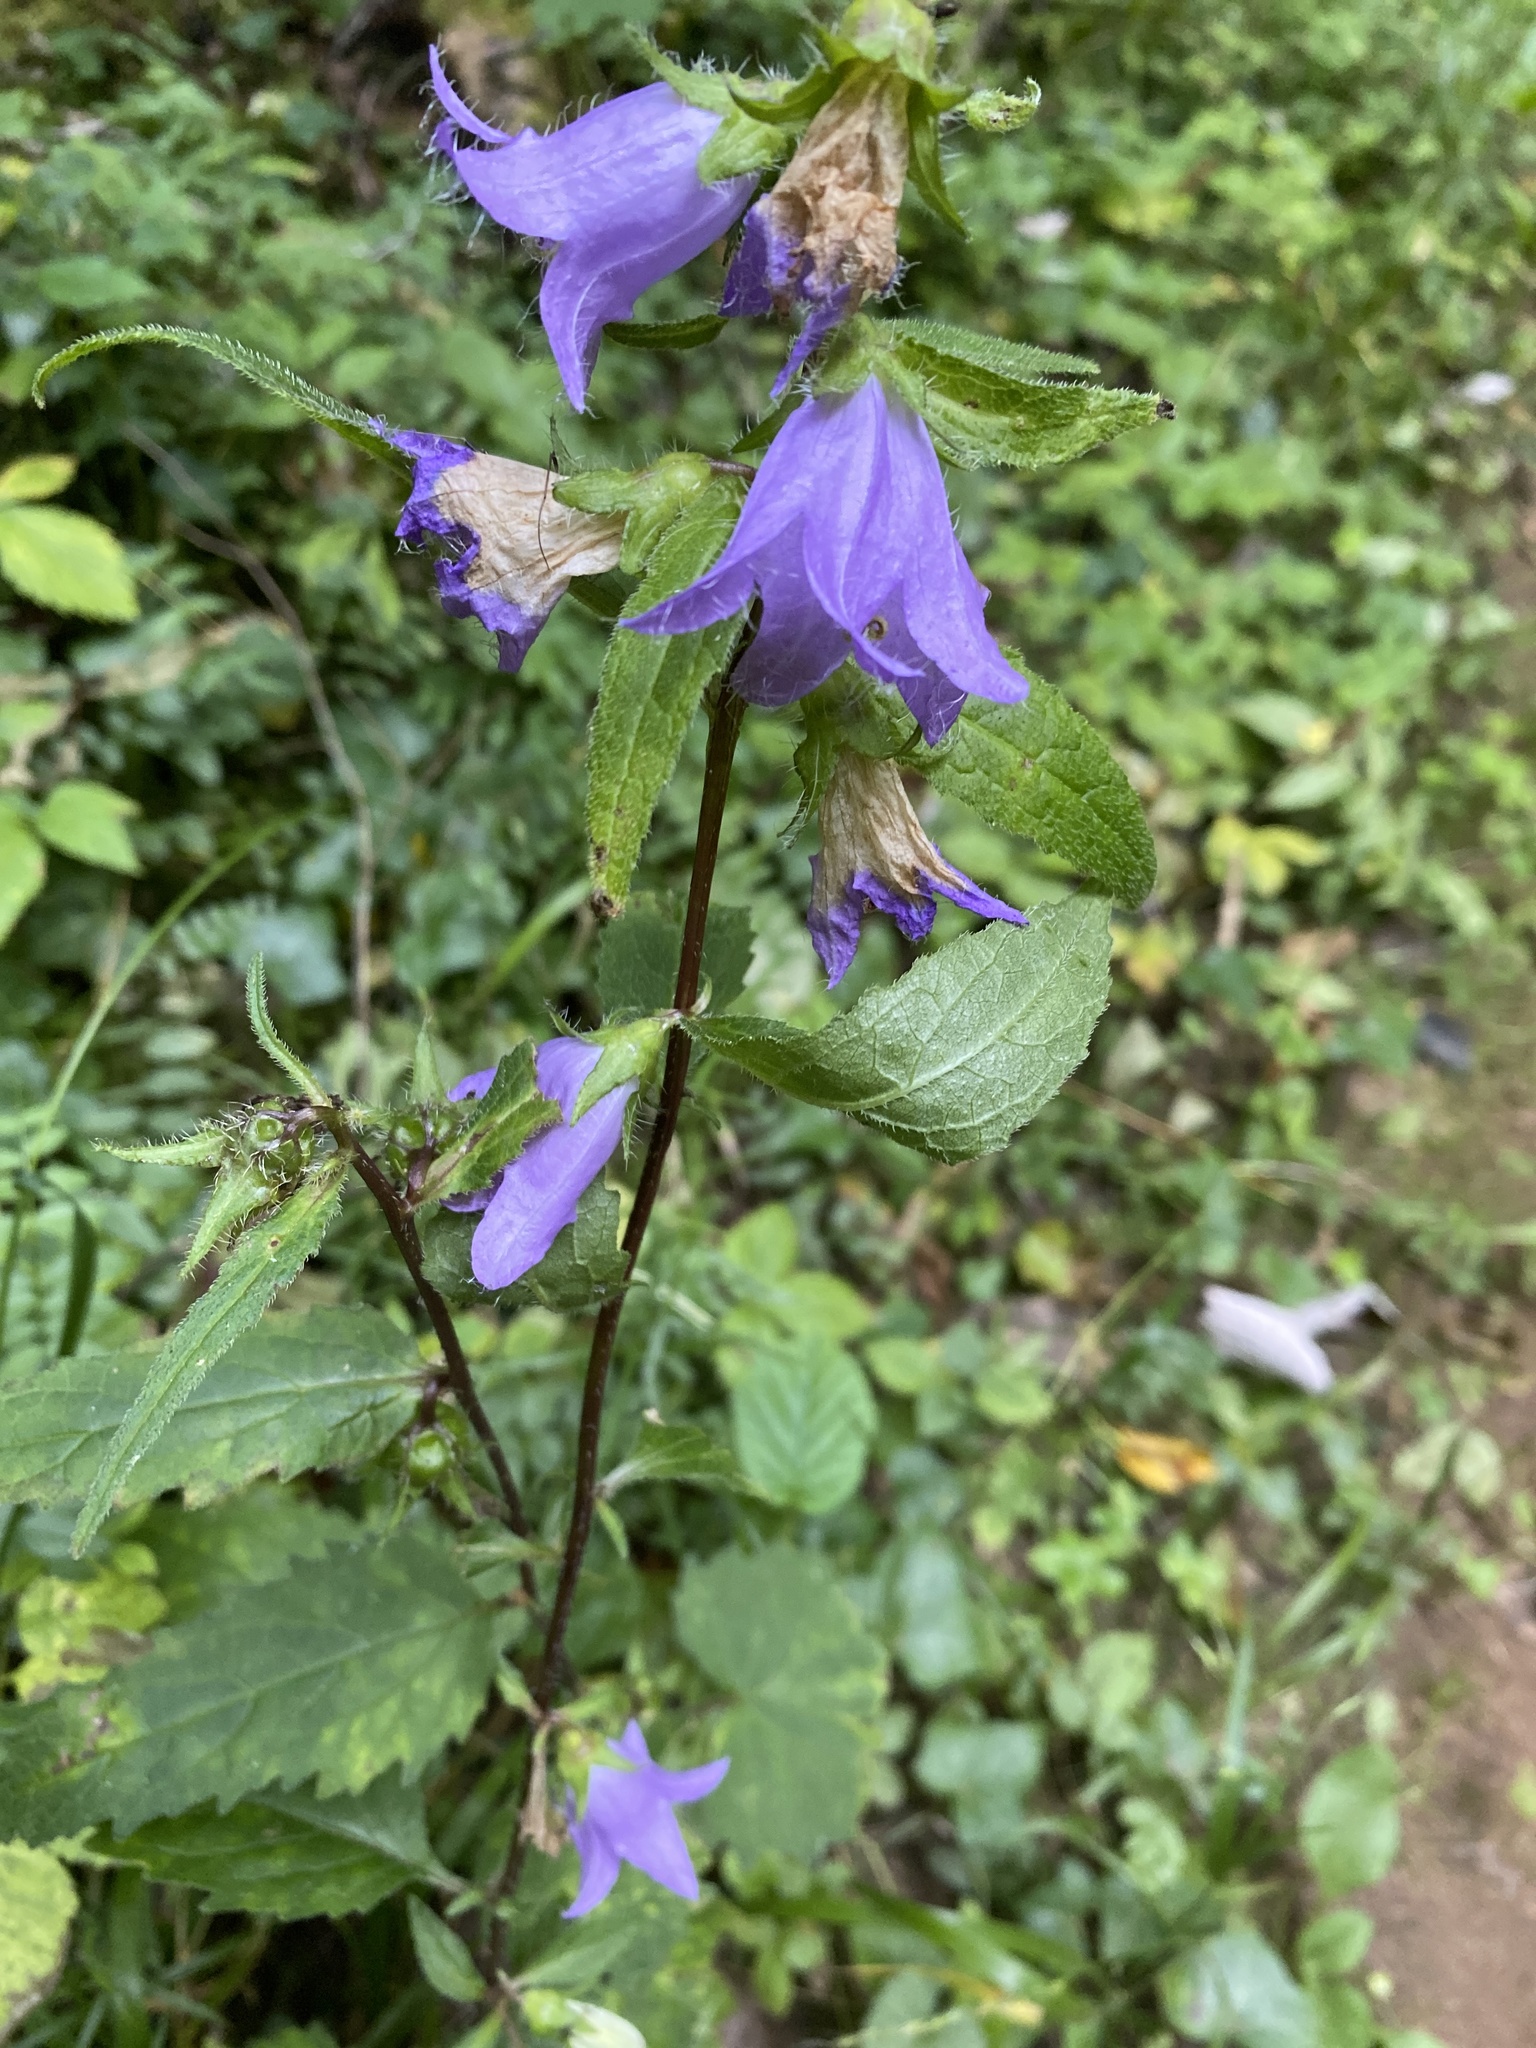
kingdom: Plantae
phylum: Tracheophyta
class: Magnoliopsida
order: Asterales
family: Campanulaceae
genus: Campanula
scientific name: Campanula trachelium
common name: Nettle-leaved bellflower
